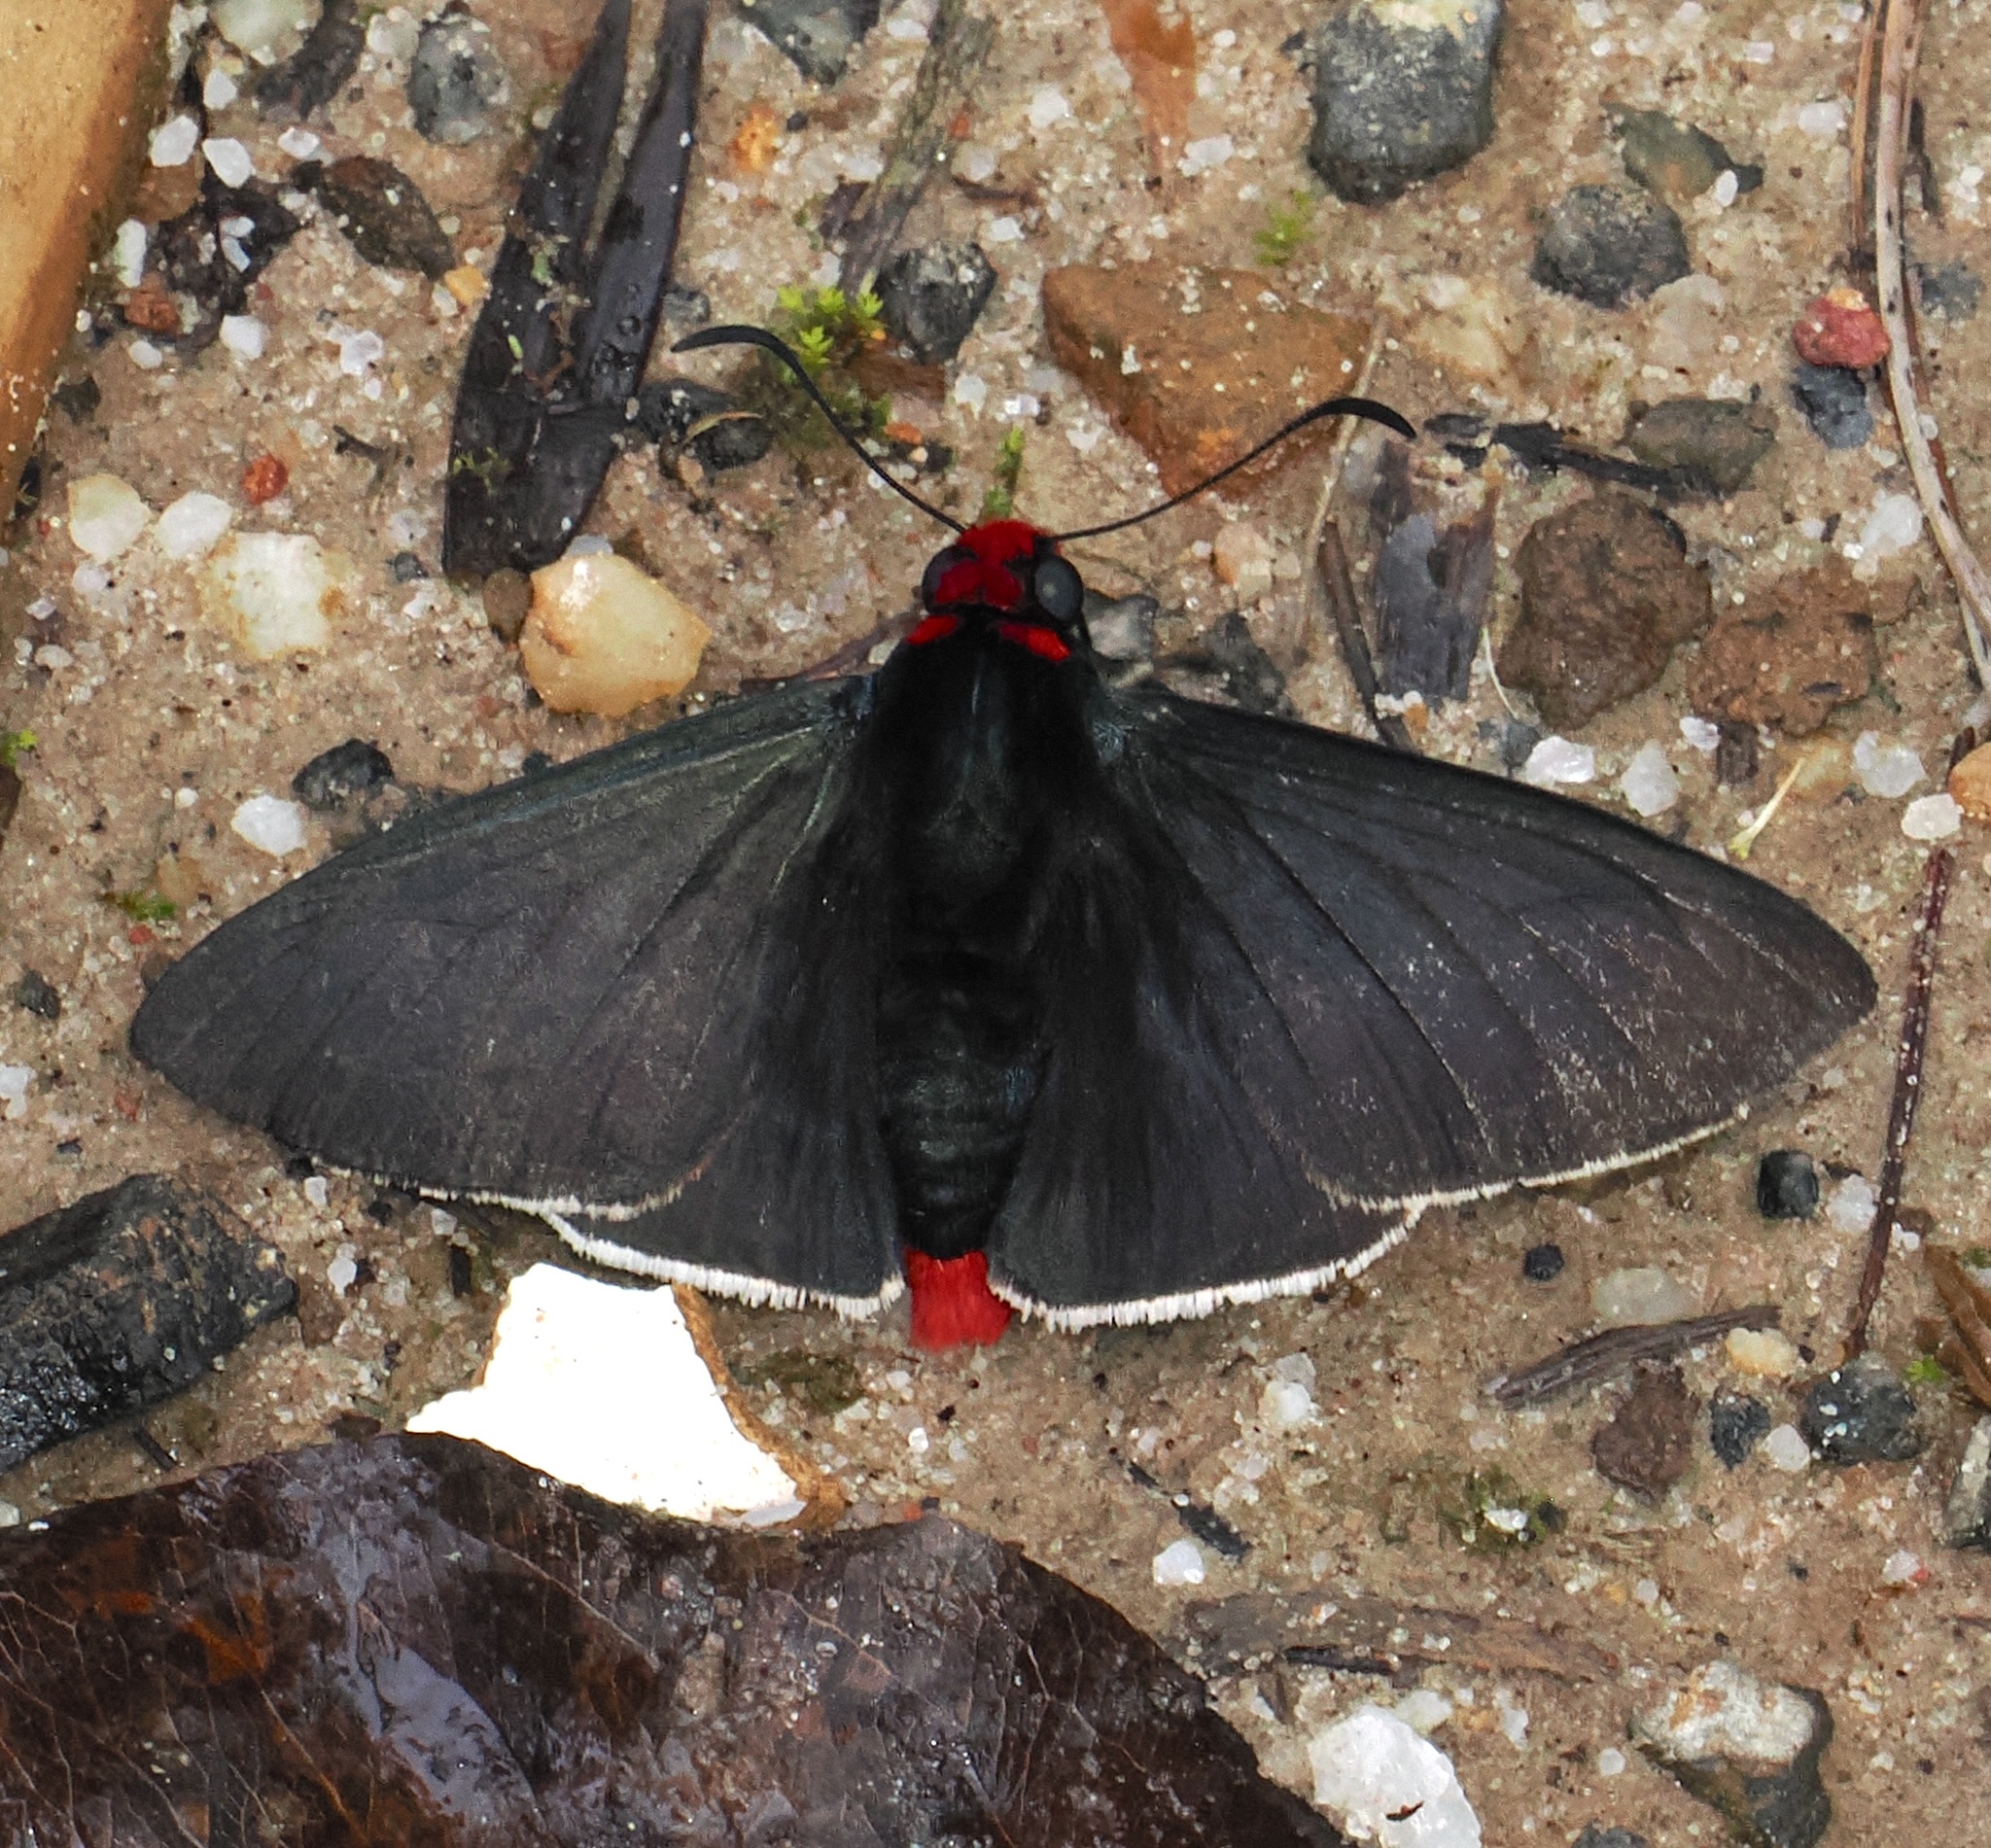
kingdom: Animalia
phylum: Arthropoda
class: Insecta
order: Lepidoptera
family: Hesperiidae
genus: Pyrrhopyge
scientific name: Pyrrhopyge charybdis
